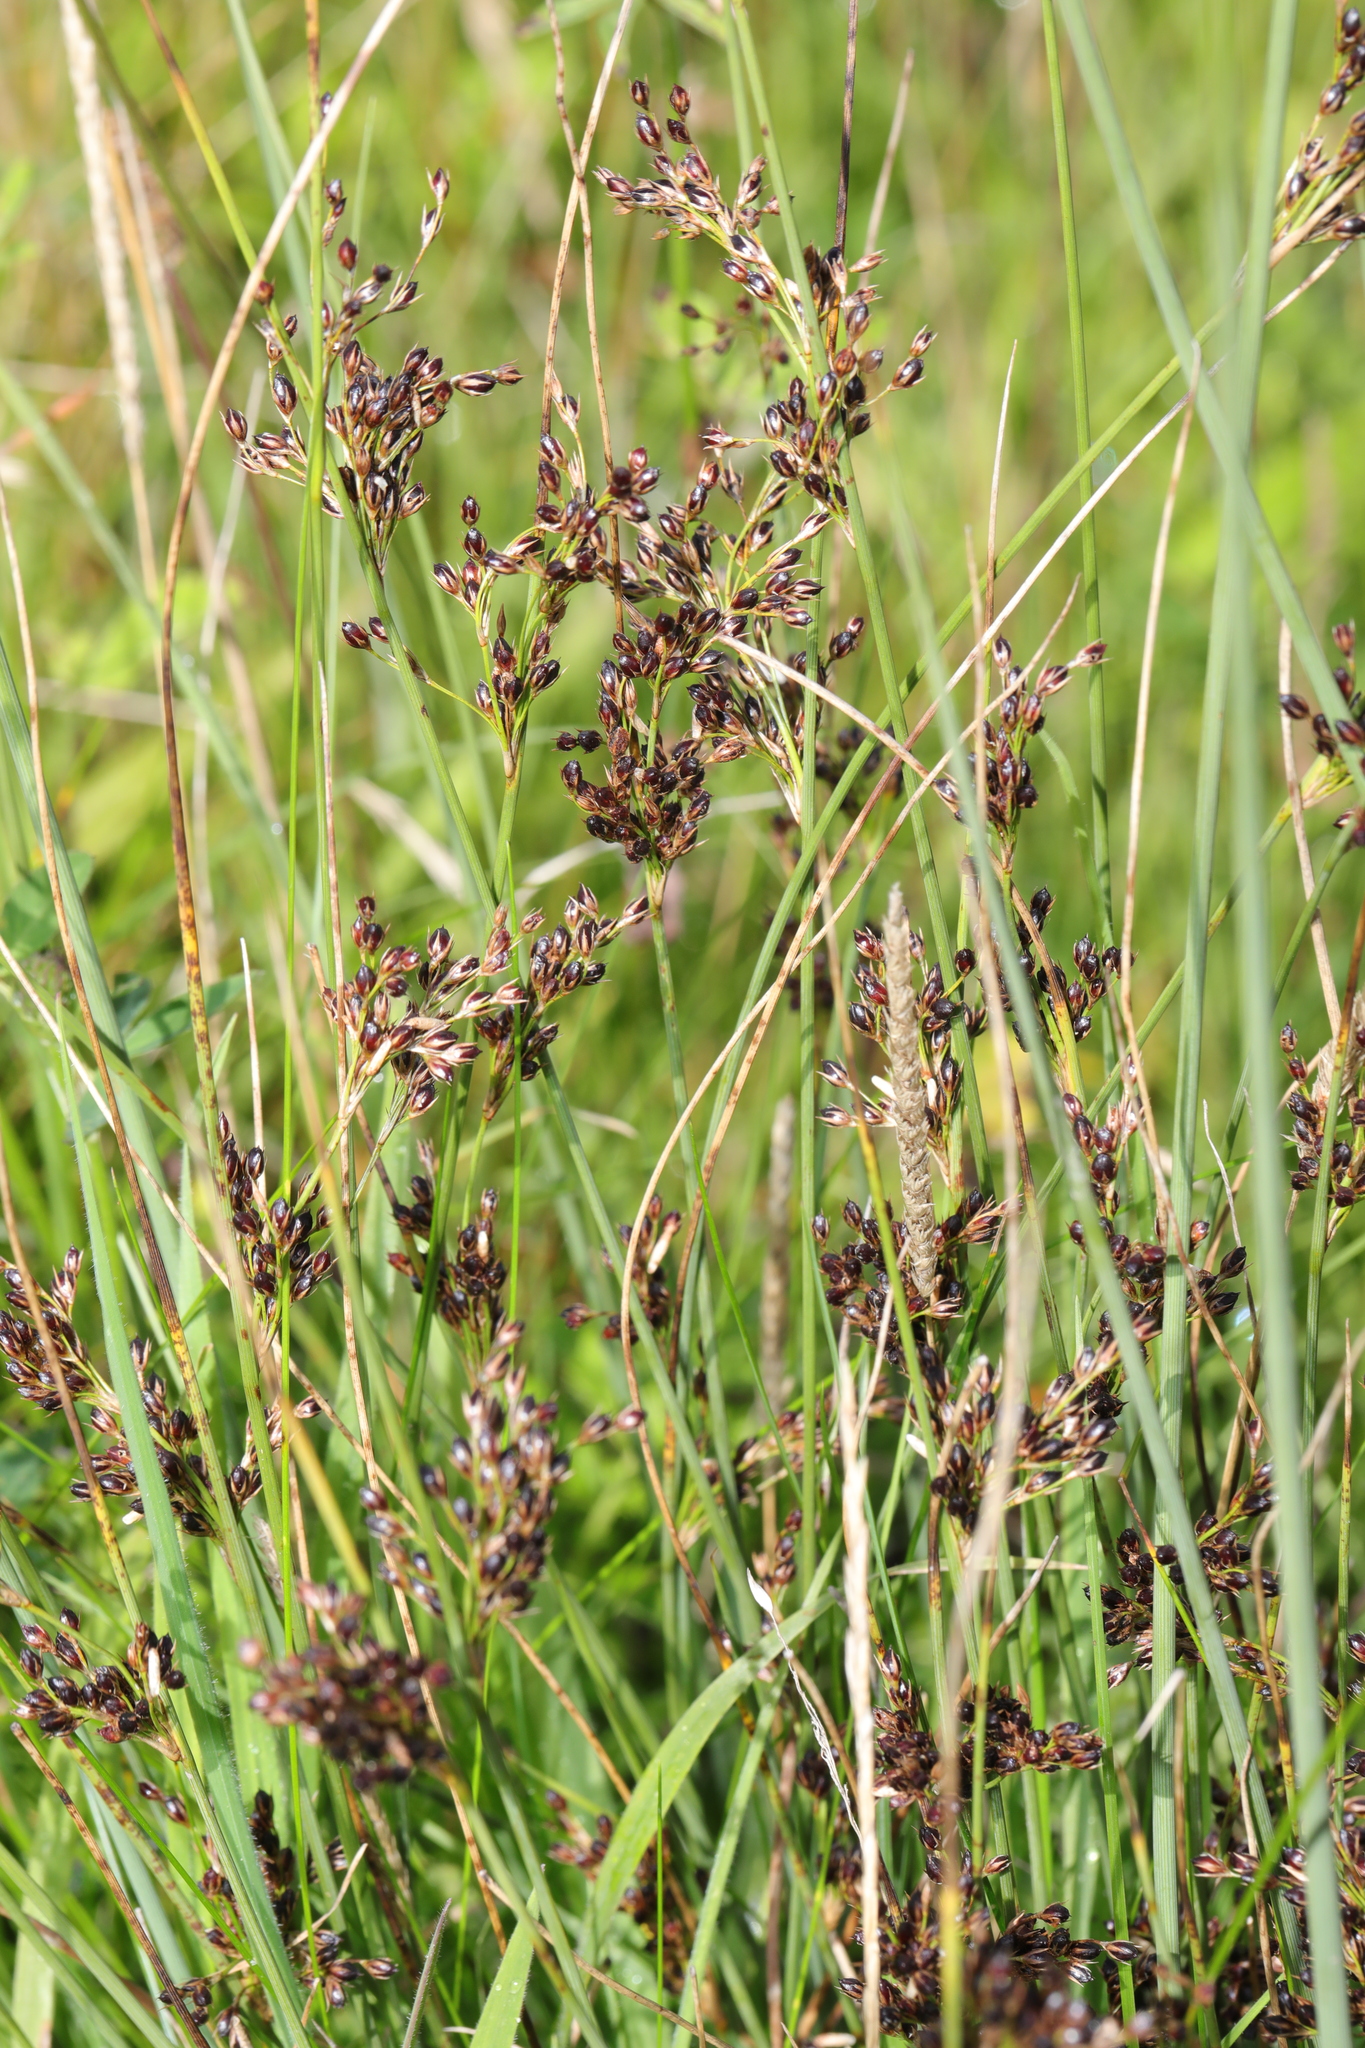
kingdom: Plantae
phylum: Tracheophyta
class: Liliopsida
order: Poales
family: Juncaceae
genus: Juncus
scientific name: Juncus inflexus
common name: Hard rush
